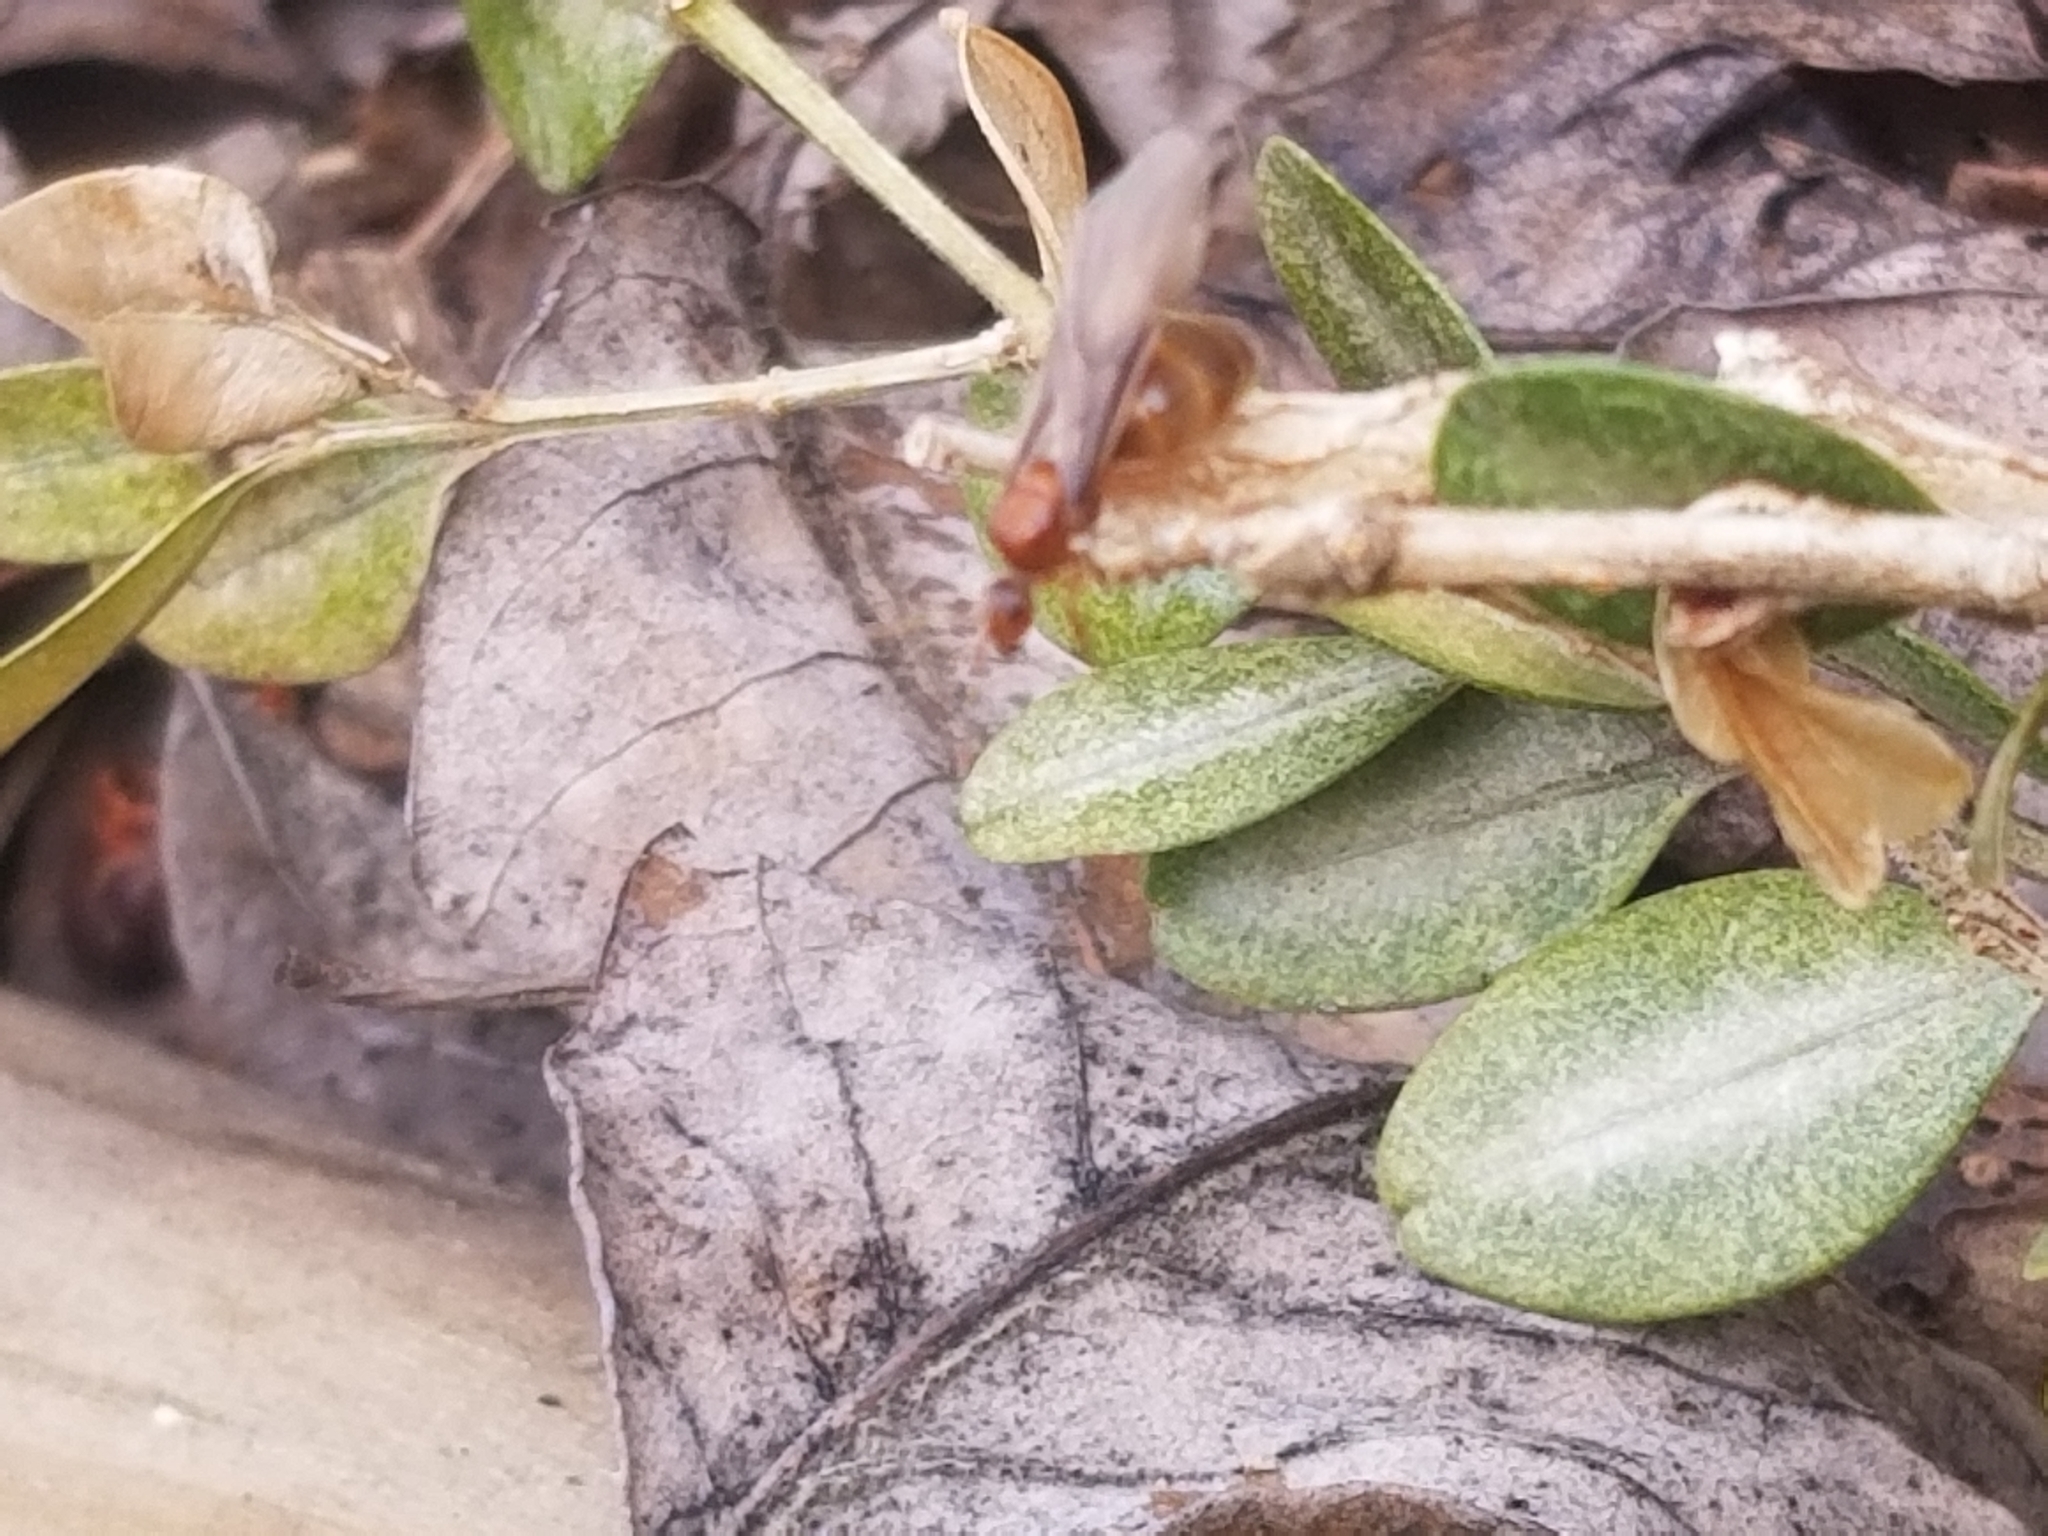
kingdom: Animalia
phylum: Arthropoda
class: Insecta
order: Hymenoptera
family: Formicidae
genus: Prenolepis
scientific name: Prenolepis imparis
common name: Small honey ant
